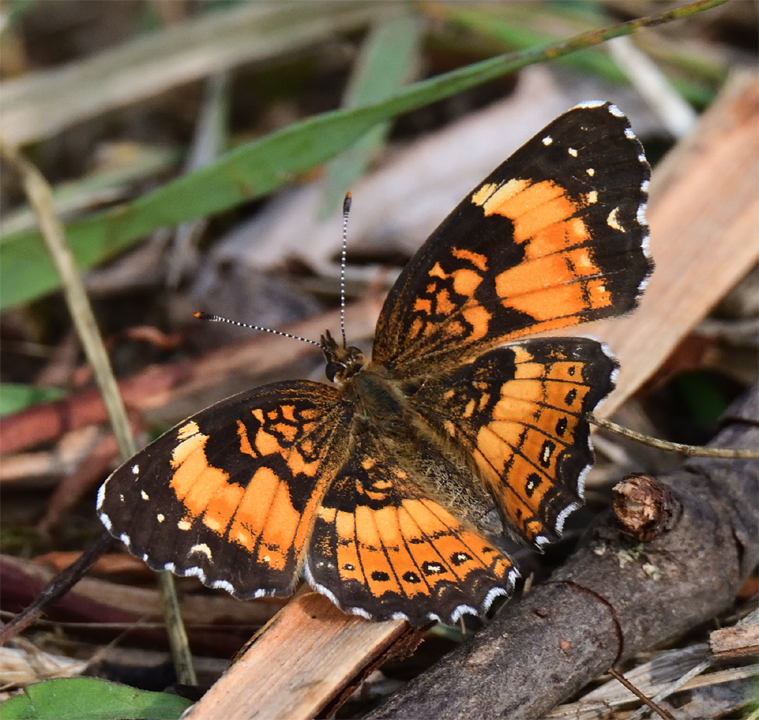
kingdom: Animalia
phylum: Arthropoda
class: Insecta
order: Lepidoptera
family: Nymphalidae
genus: Chlosyne
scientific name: Chlosyne nycteis
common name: Silvery checkerspot
